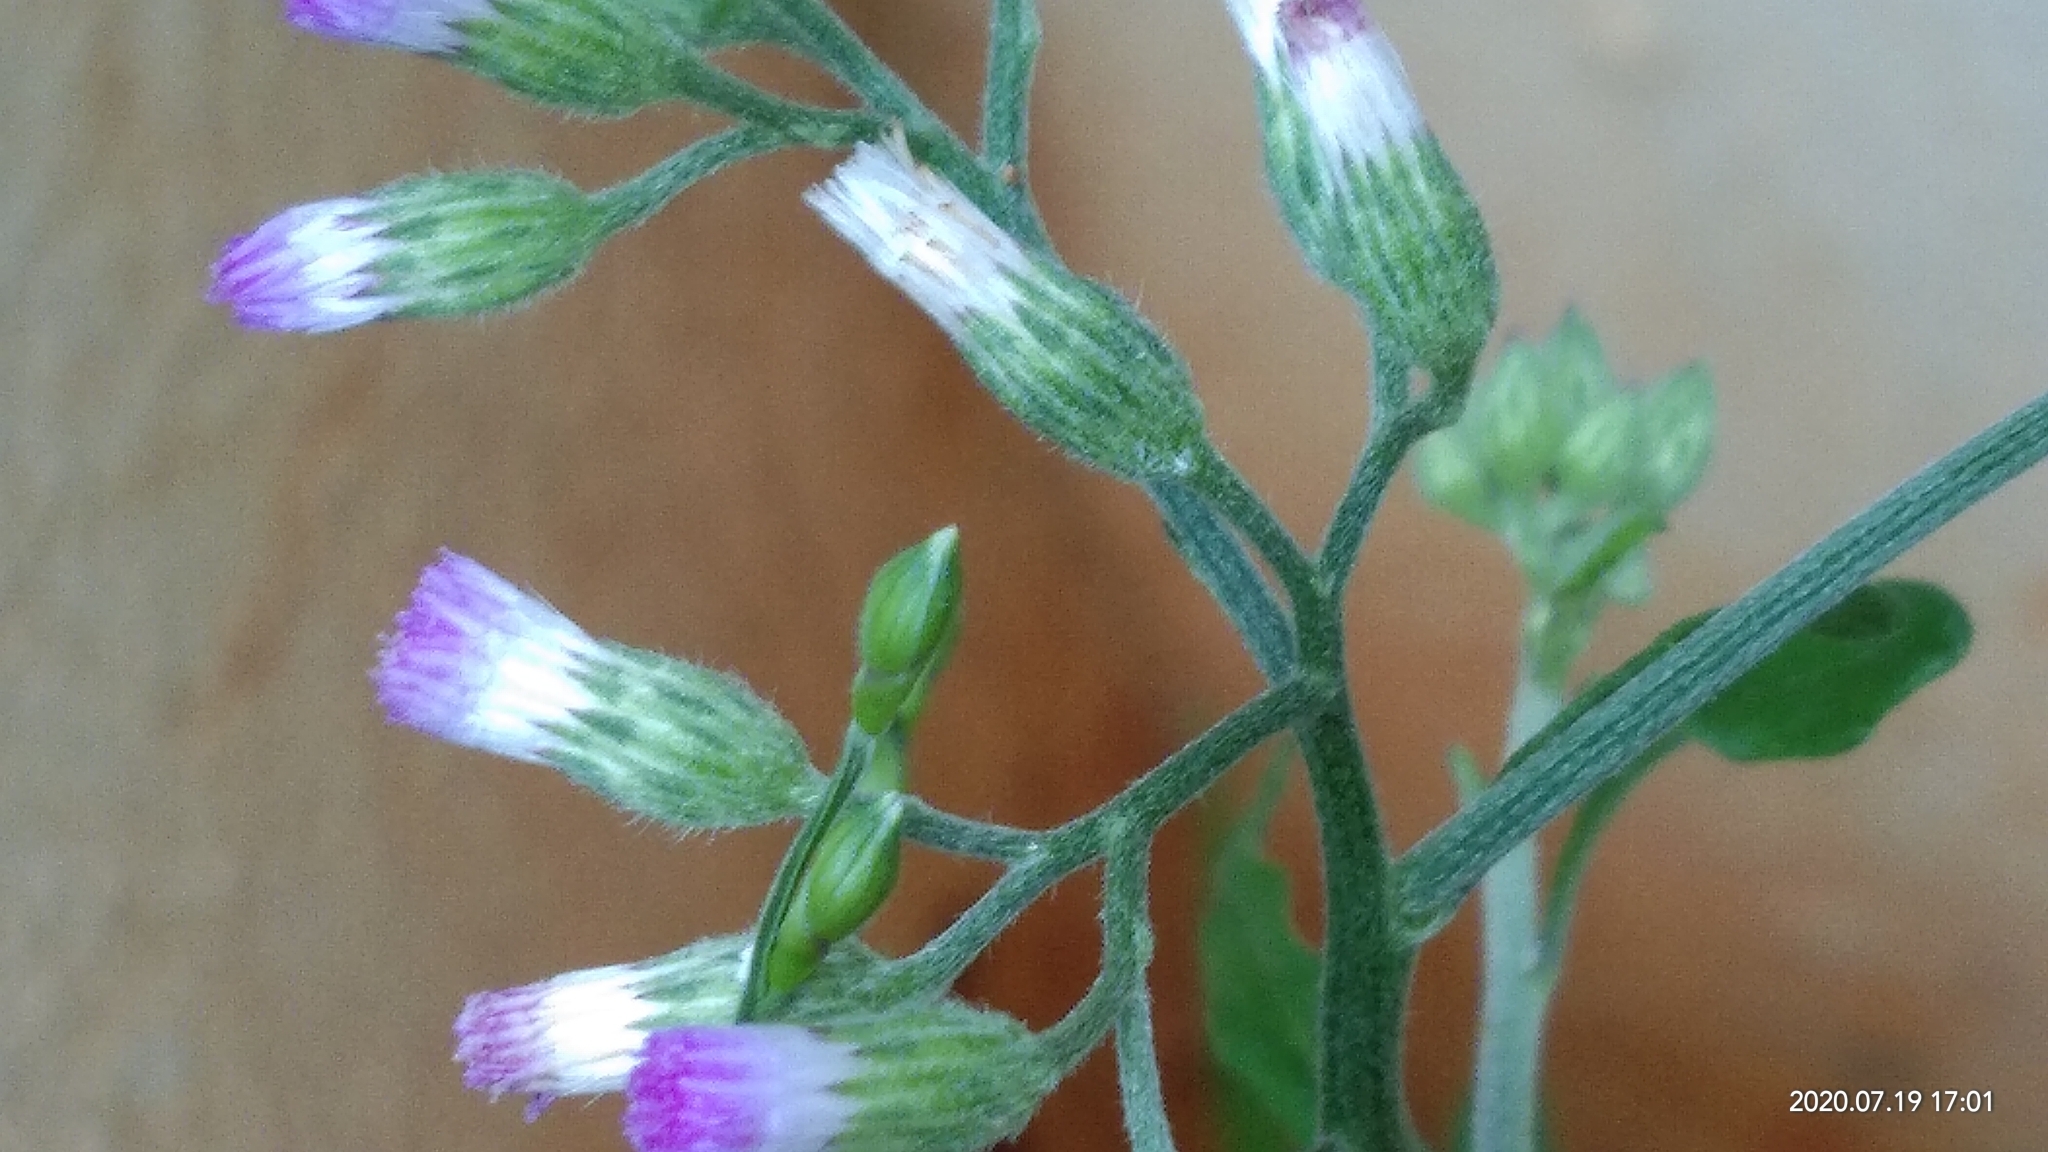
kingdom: Plantae
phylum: Tracheophyta
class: Magnoliopsida
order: Asterales
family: Asteraceae
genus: Cyanthillium
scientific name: Cyanthillium cinereum
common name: Little ironweed
